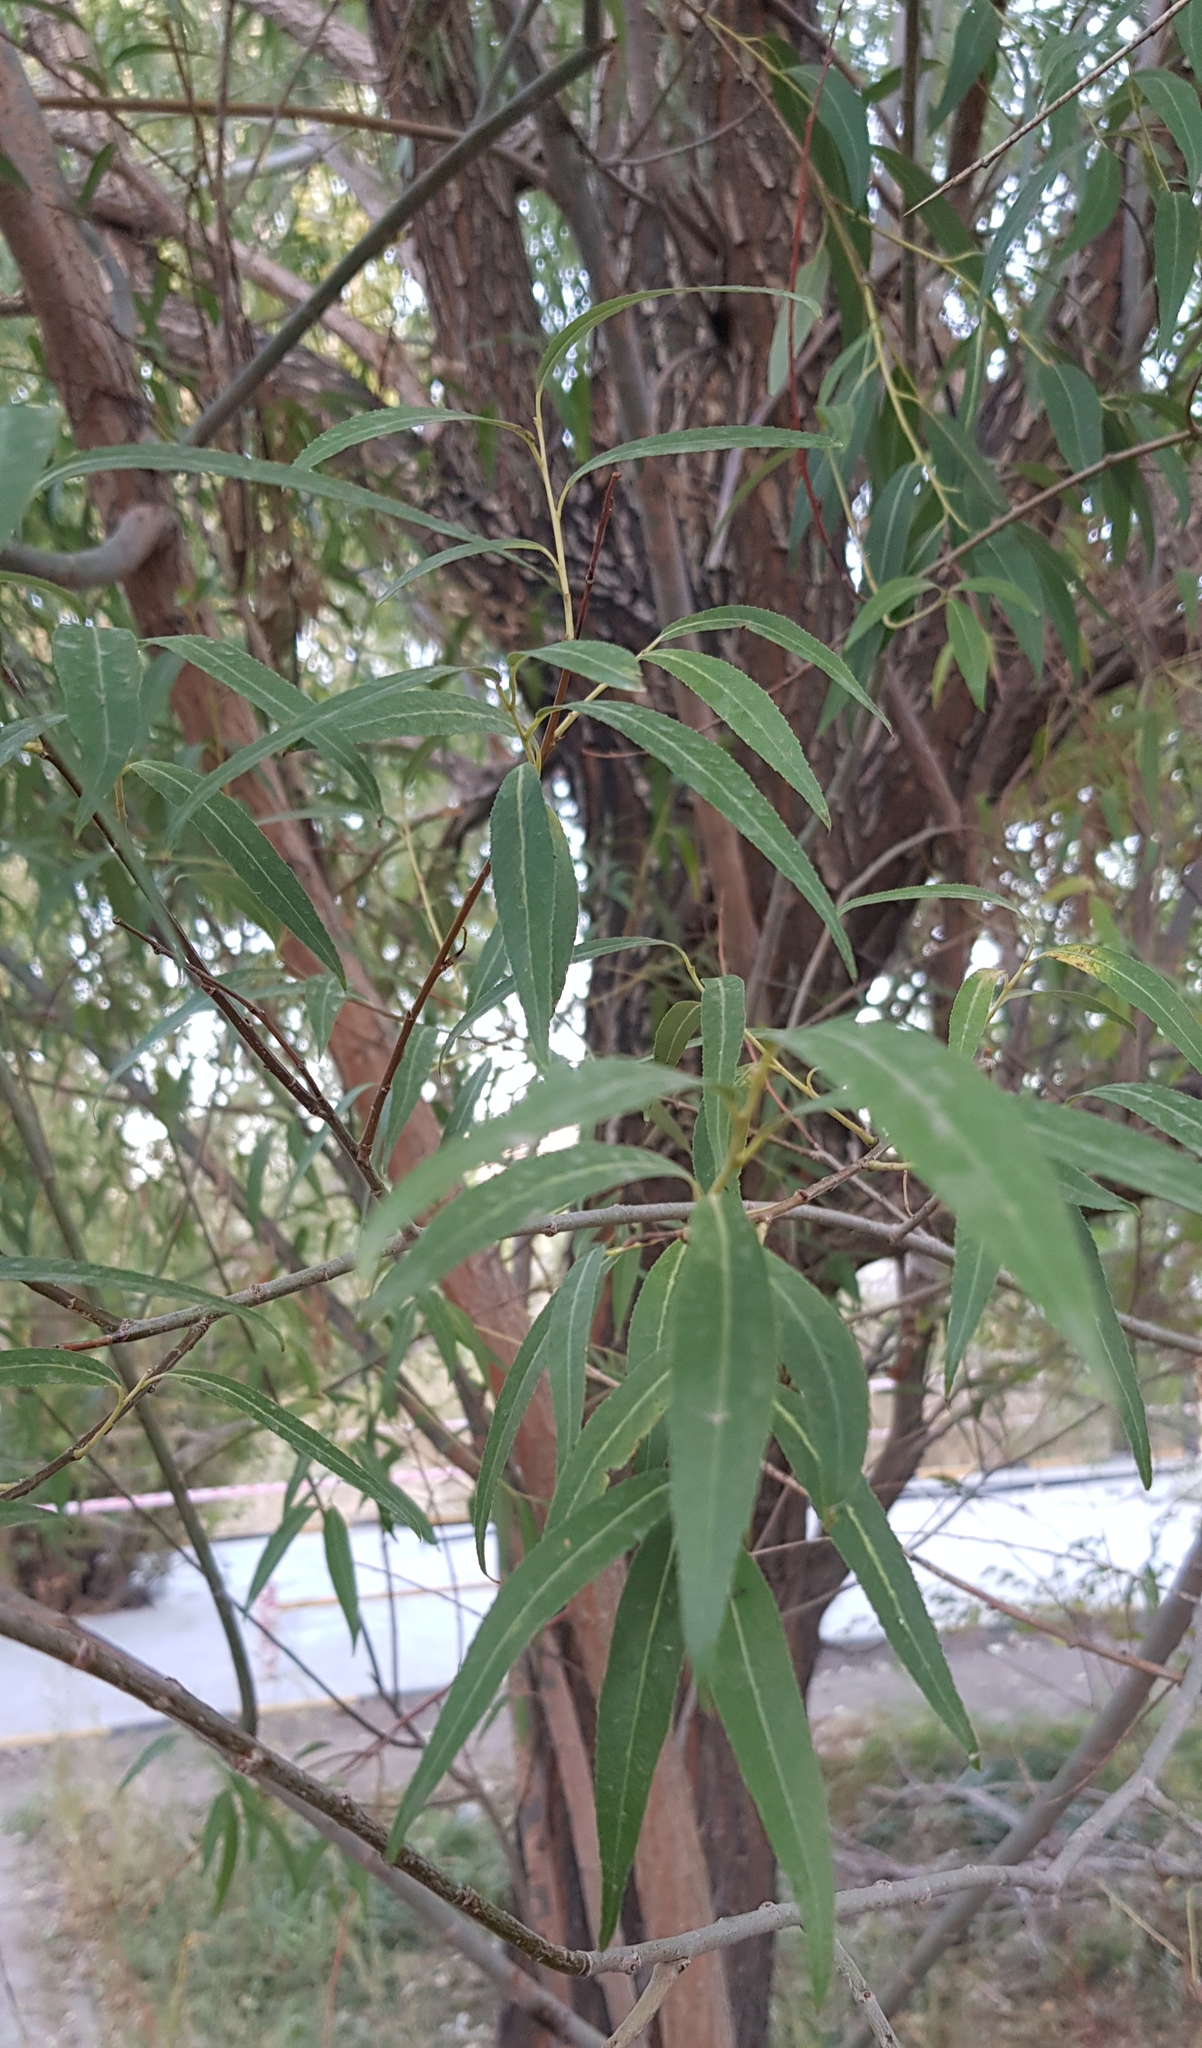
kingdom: Plantae
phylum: Tracheophyta
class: Magnoliopsida
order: Rosales
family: Elaeagnaceae
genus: Elaeagnus
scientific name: Elaeagnus angustifolia
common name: Russian olive
